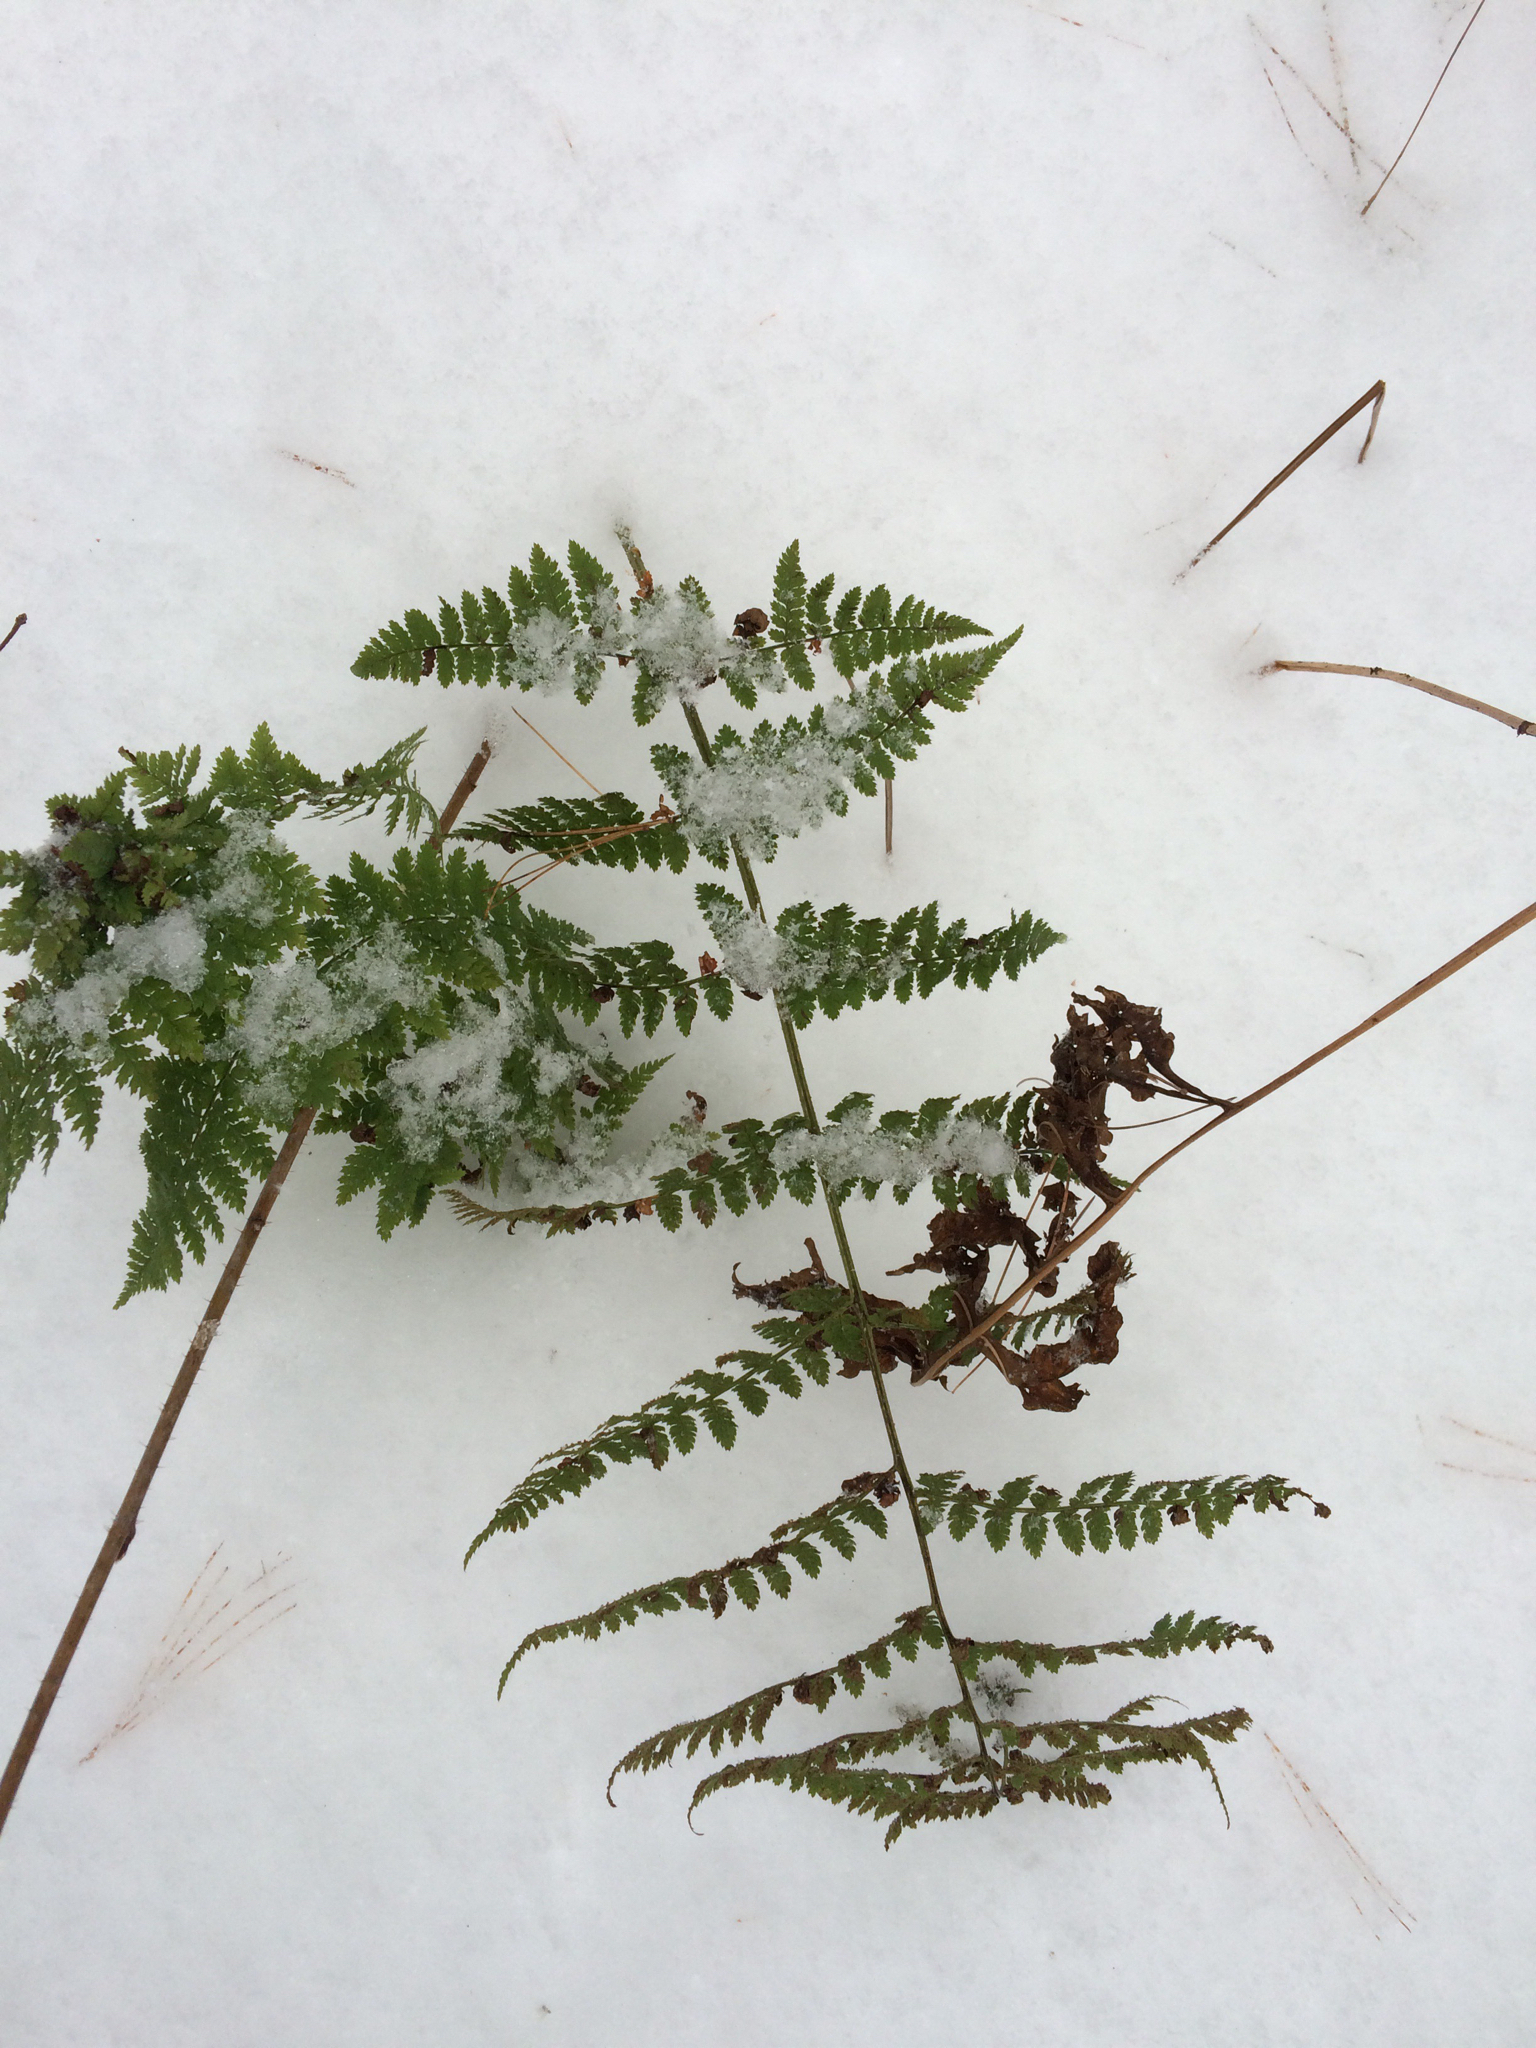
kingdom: Plantae
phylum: Tracheophyta
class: Polypodiopsida
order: Polypodiales
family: Dryopteridaceae
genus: Dryopteris
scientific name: Dryopteris intermedia
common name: Evergreen wood fern
